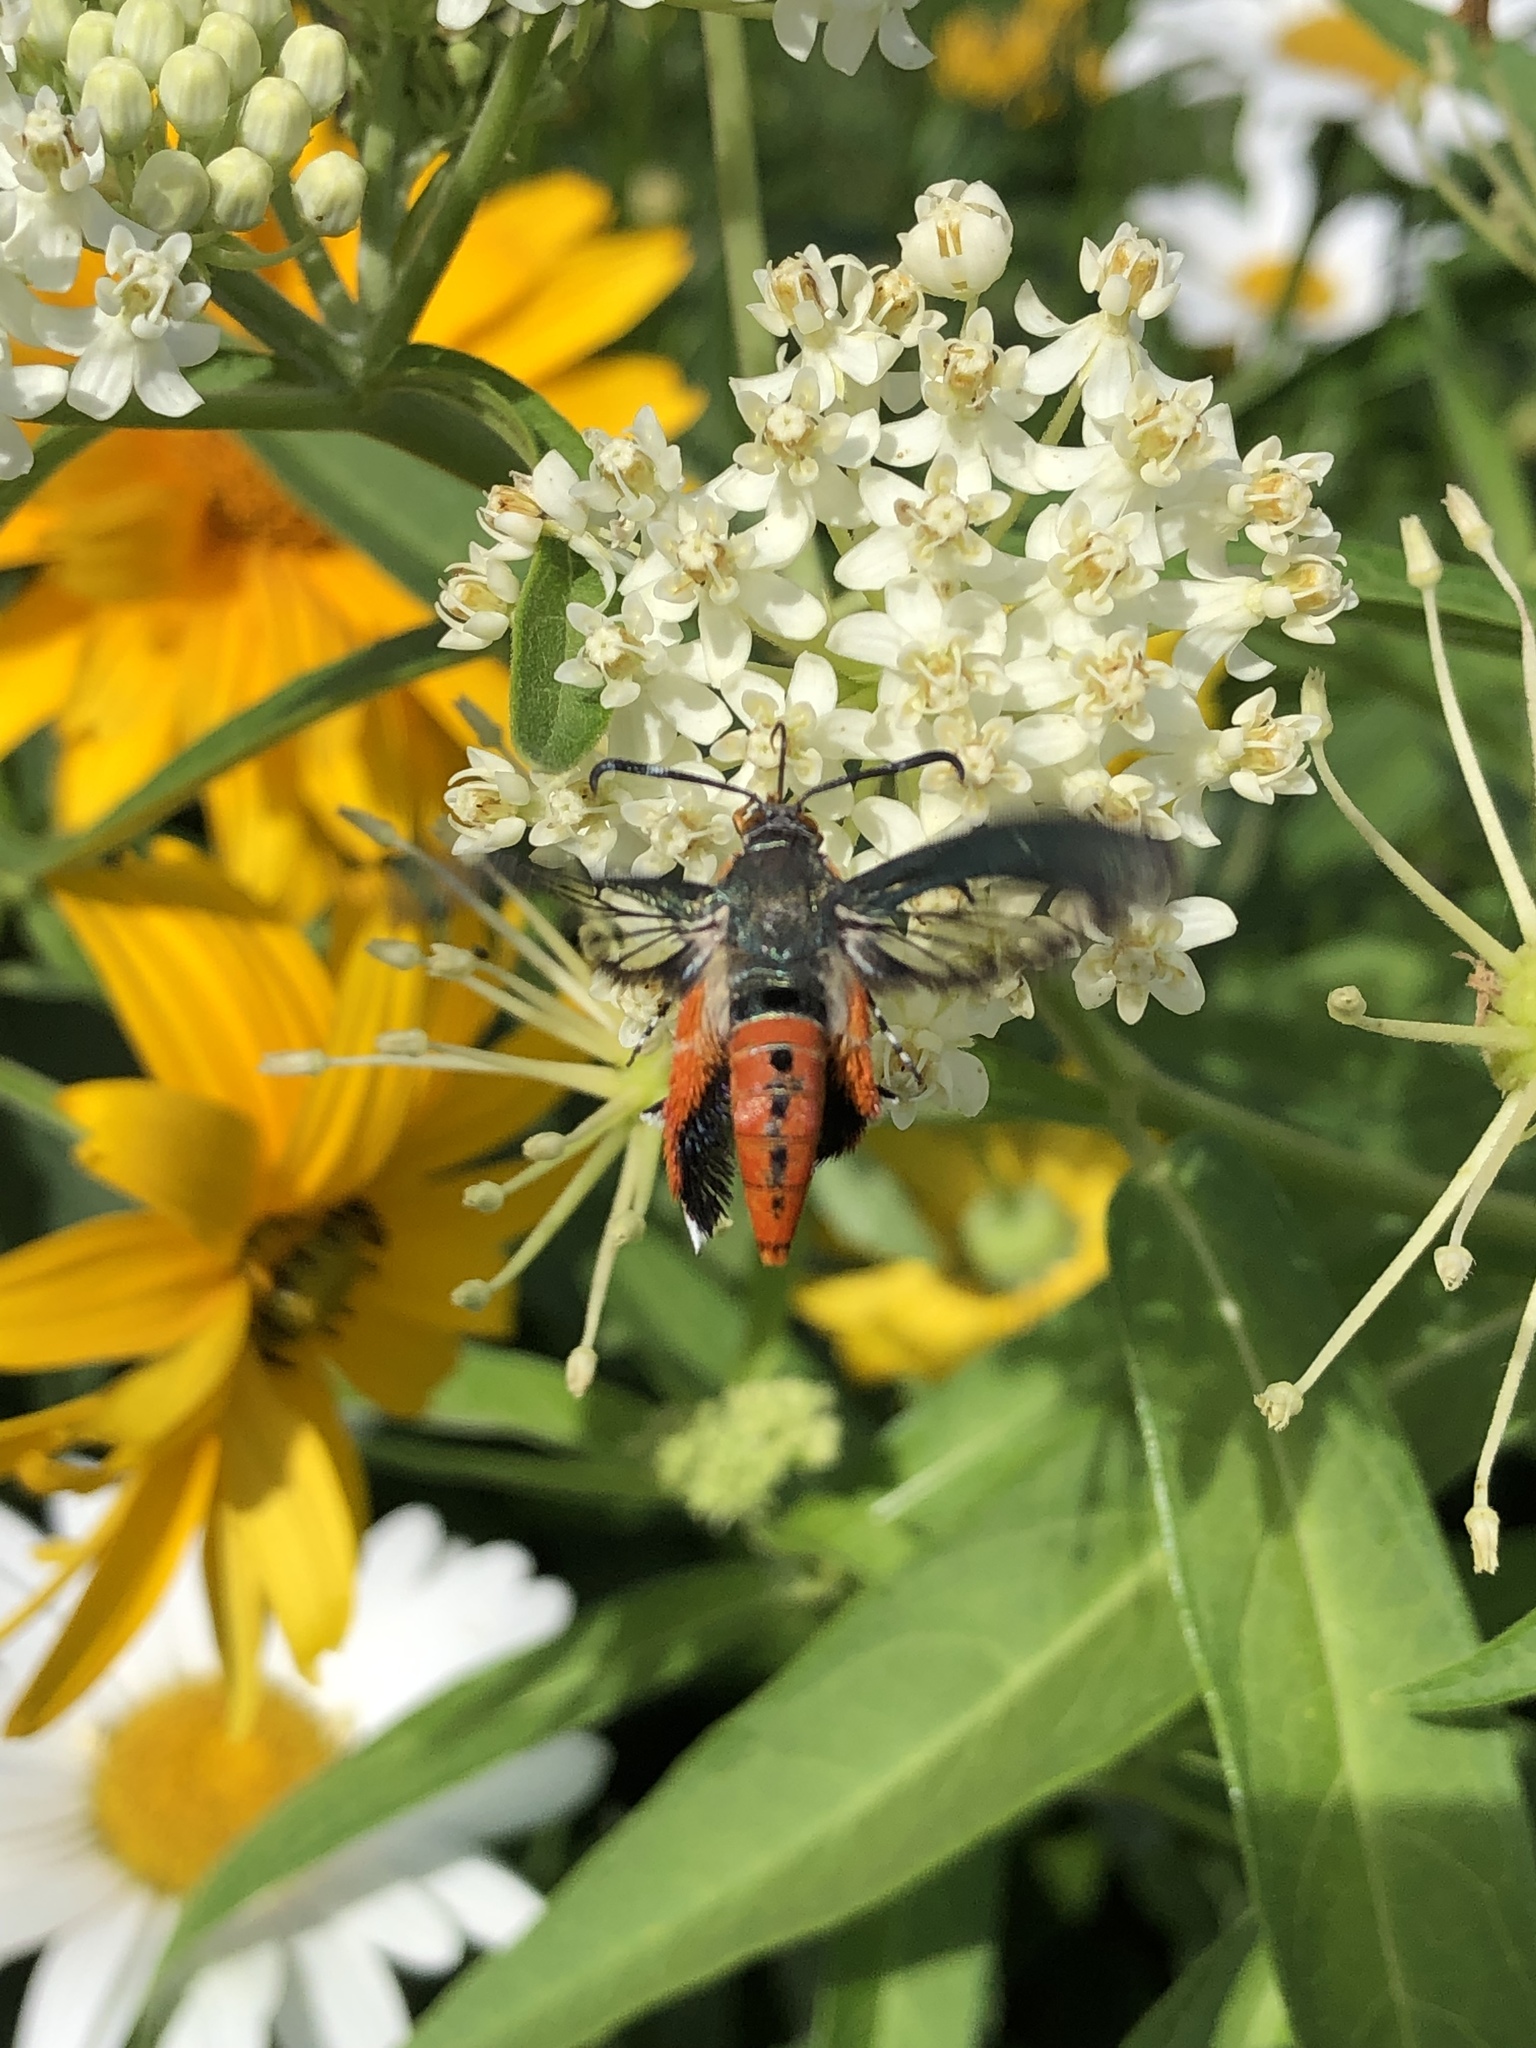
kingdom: Animalia
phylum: Arthropoda
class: Insecta
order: Lepidoptera
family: Sesiidae
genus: Eichlinia
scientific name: Eichlinia cucurbitae
